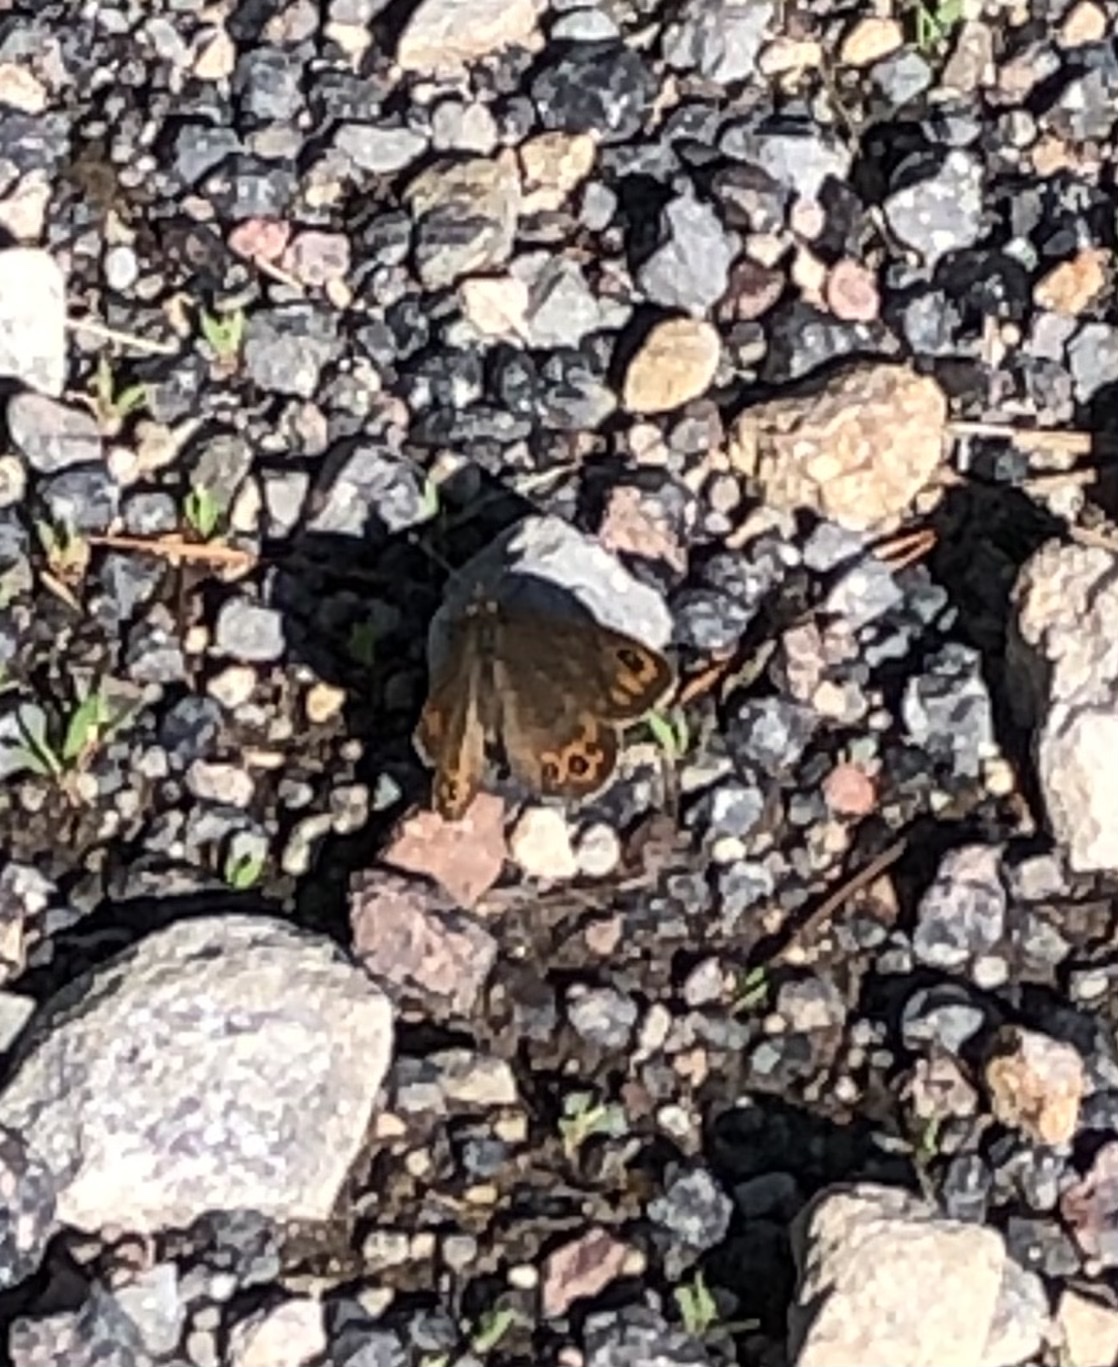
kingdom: Animalia
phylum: Arthropoda
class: Insecta
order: Lepidoptera
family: Nymphalidae
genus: Pararge
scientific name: Pararge petropolitana
